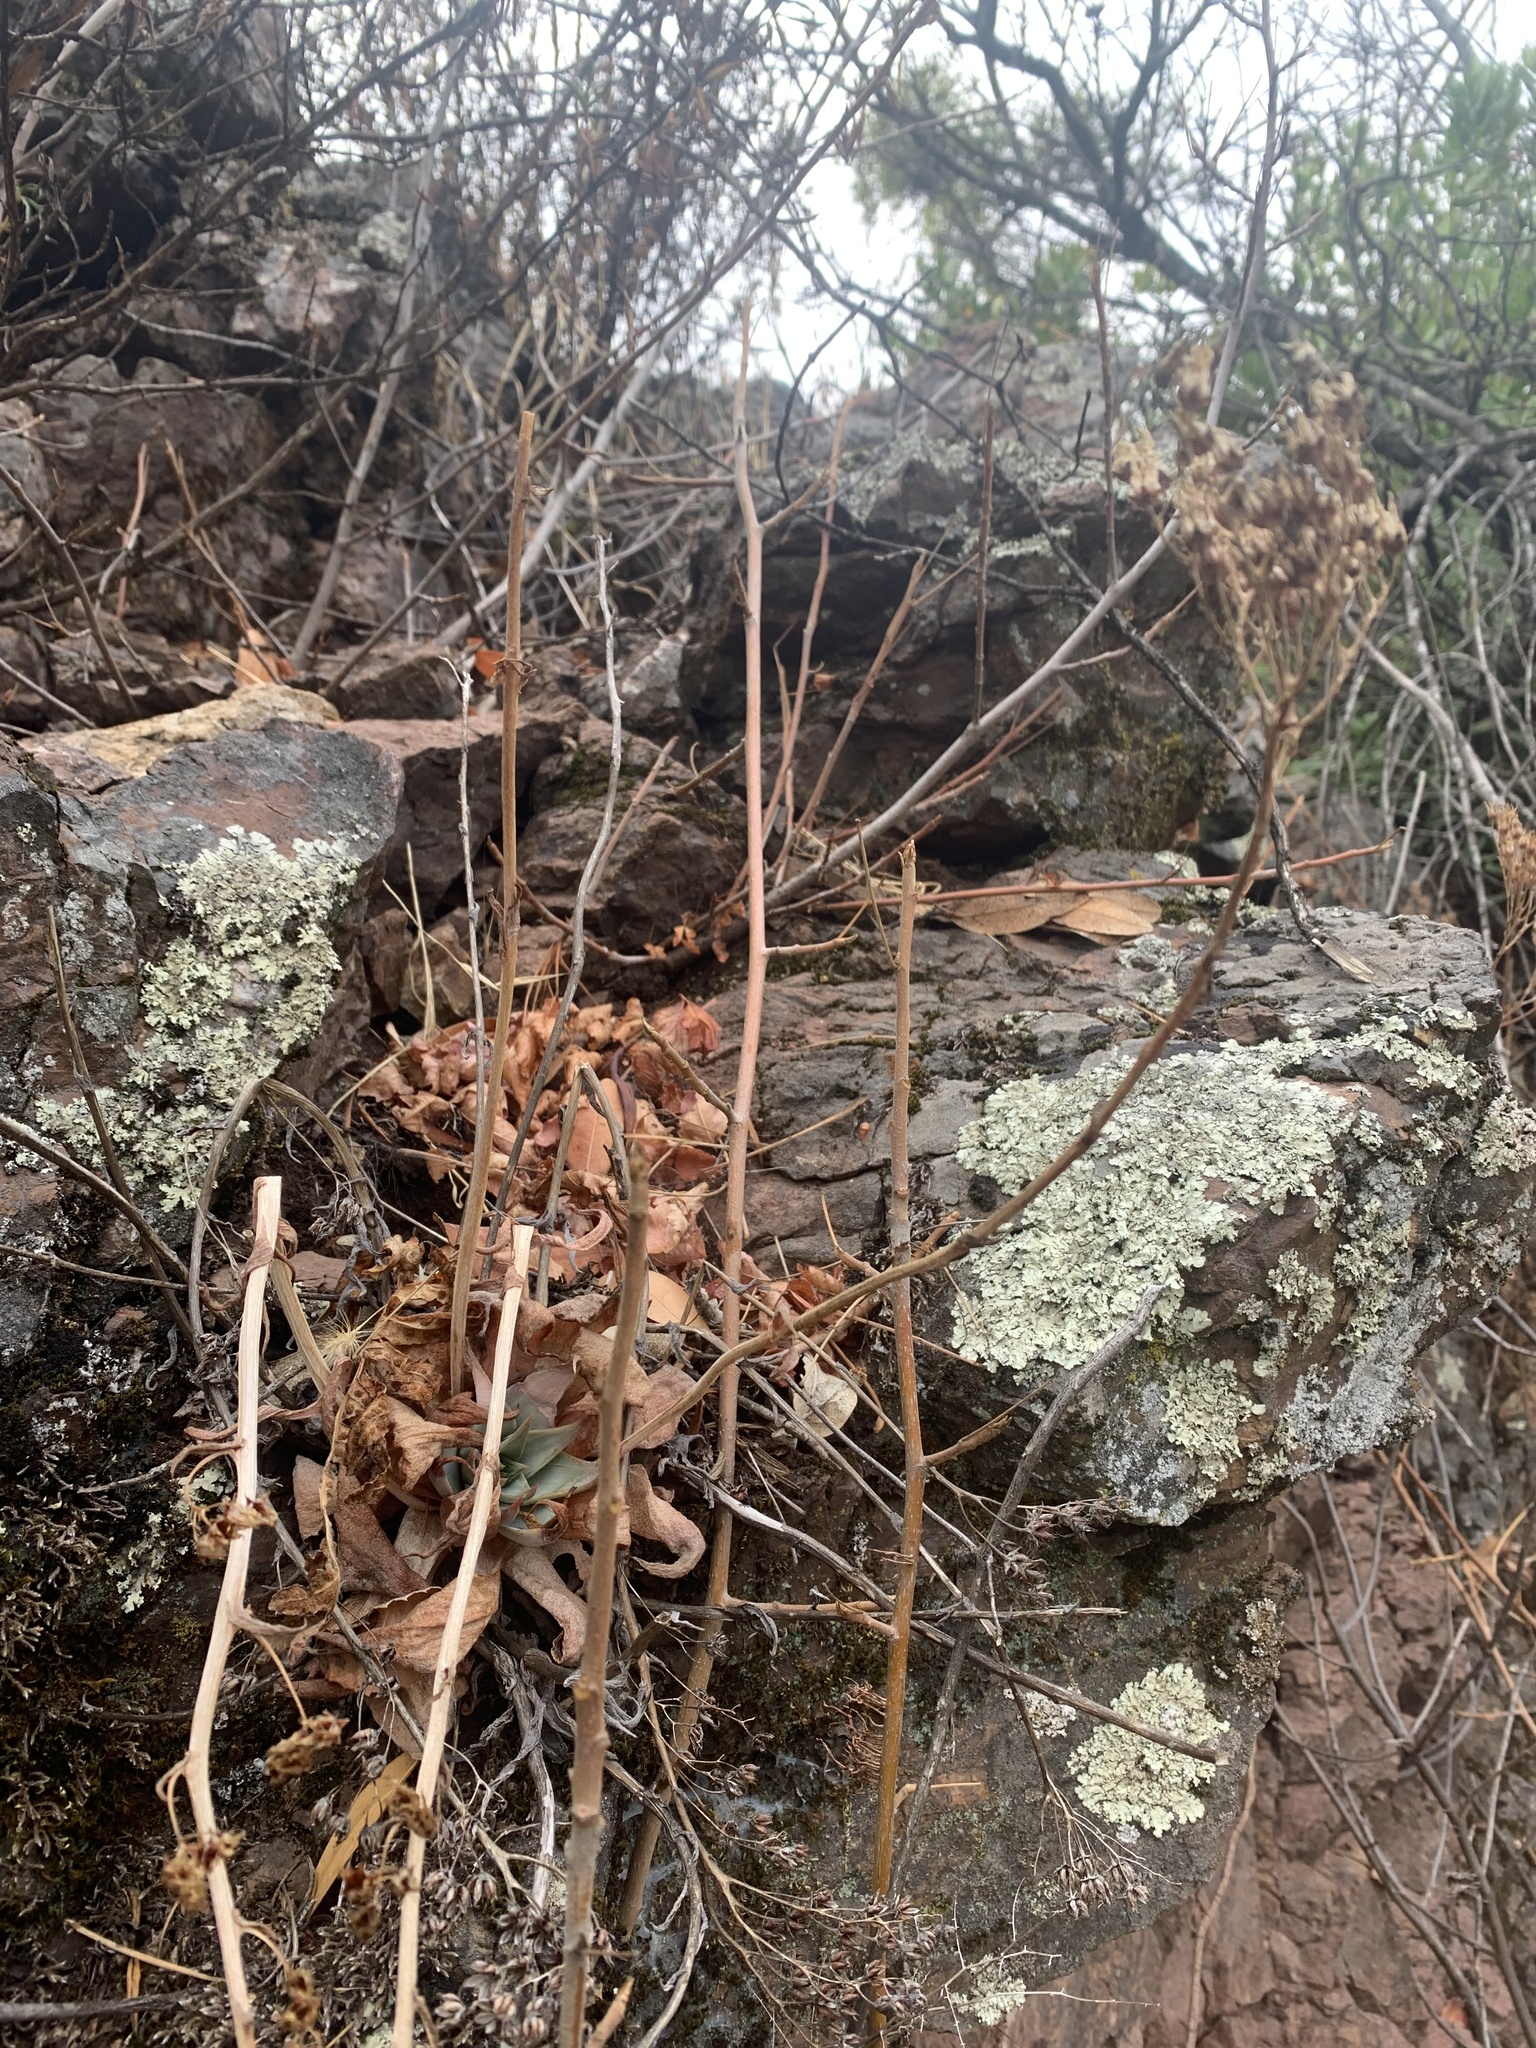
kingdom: Plantae
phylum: Tracheophyta
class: Magnoliopsida
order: Saxifragales
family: Crassulaceae
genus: Dudleya
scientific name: Dudleya cymosa
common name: Canyon dudleya
